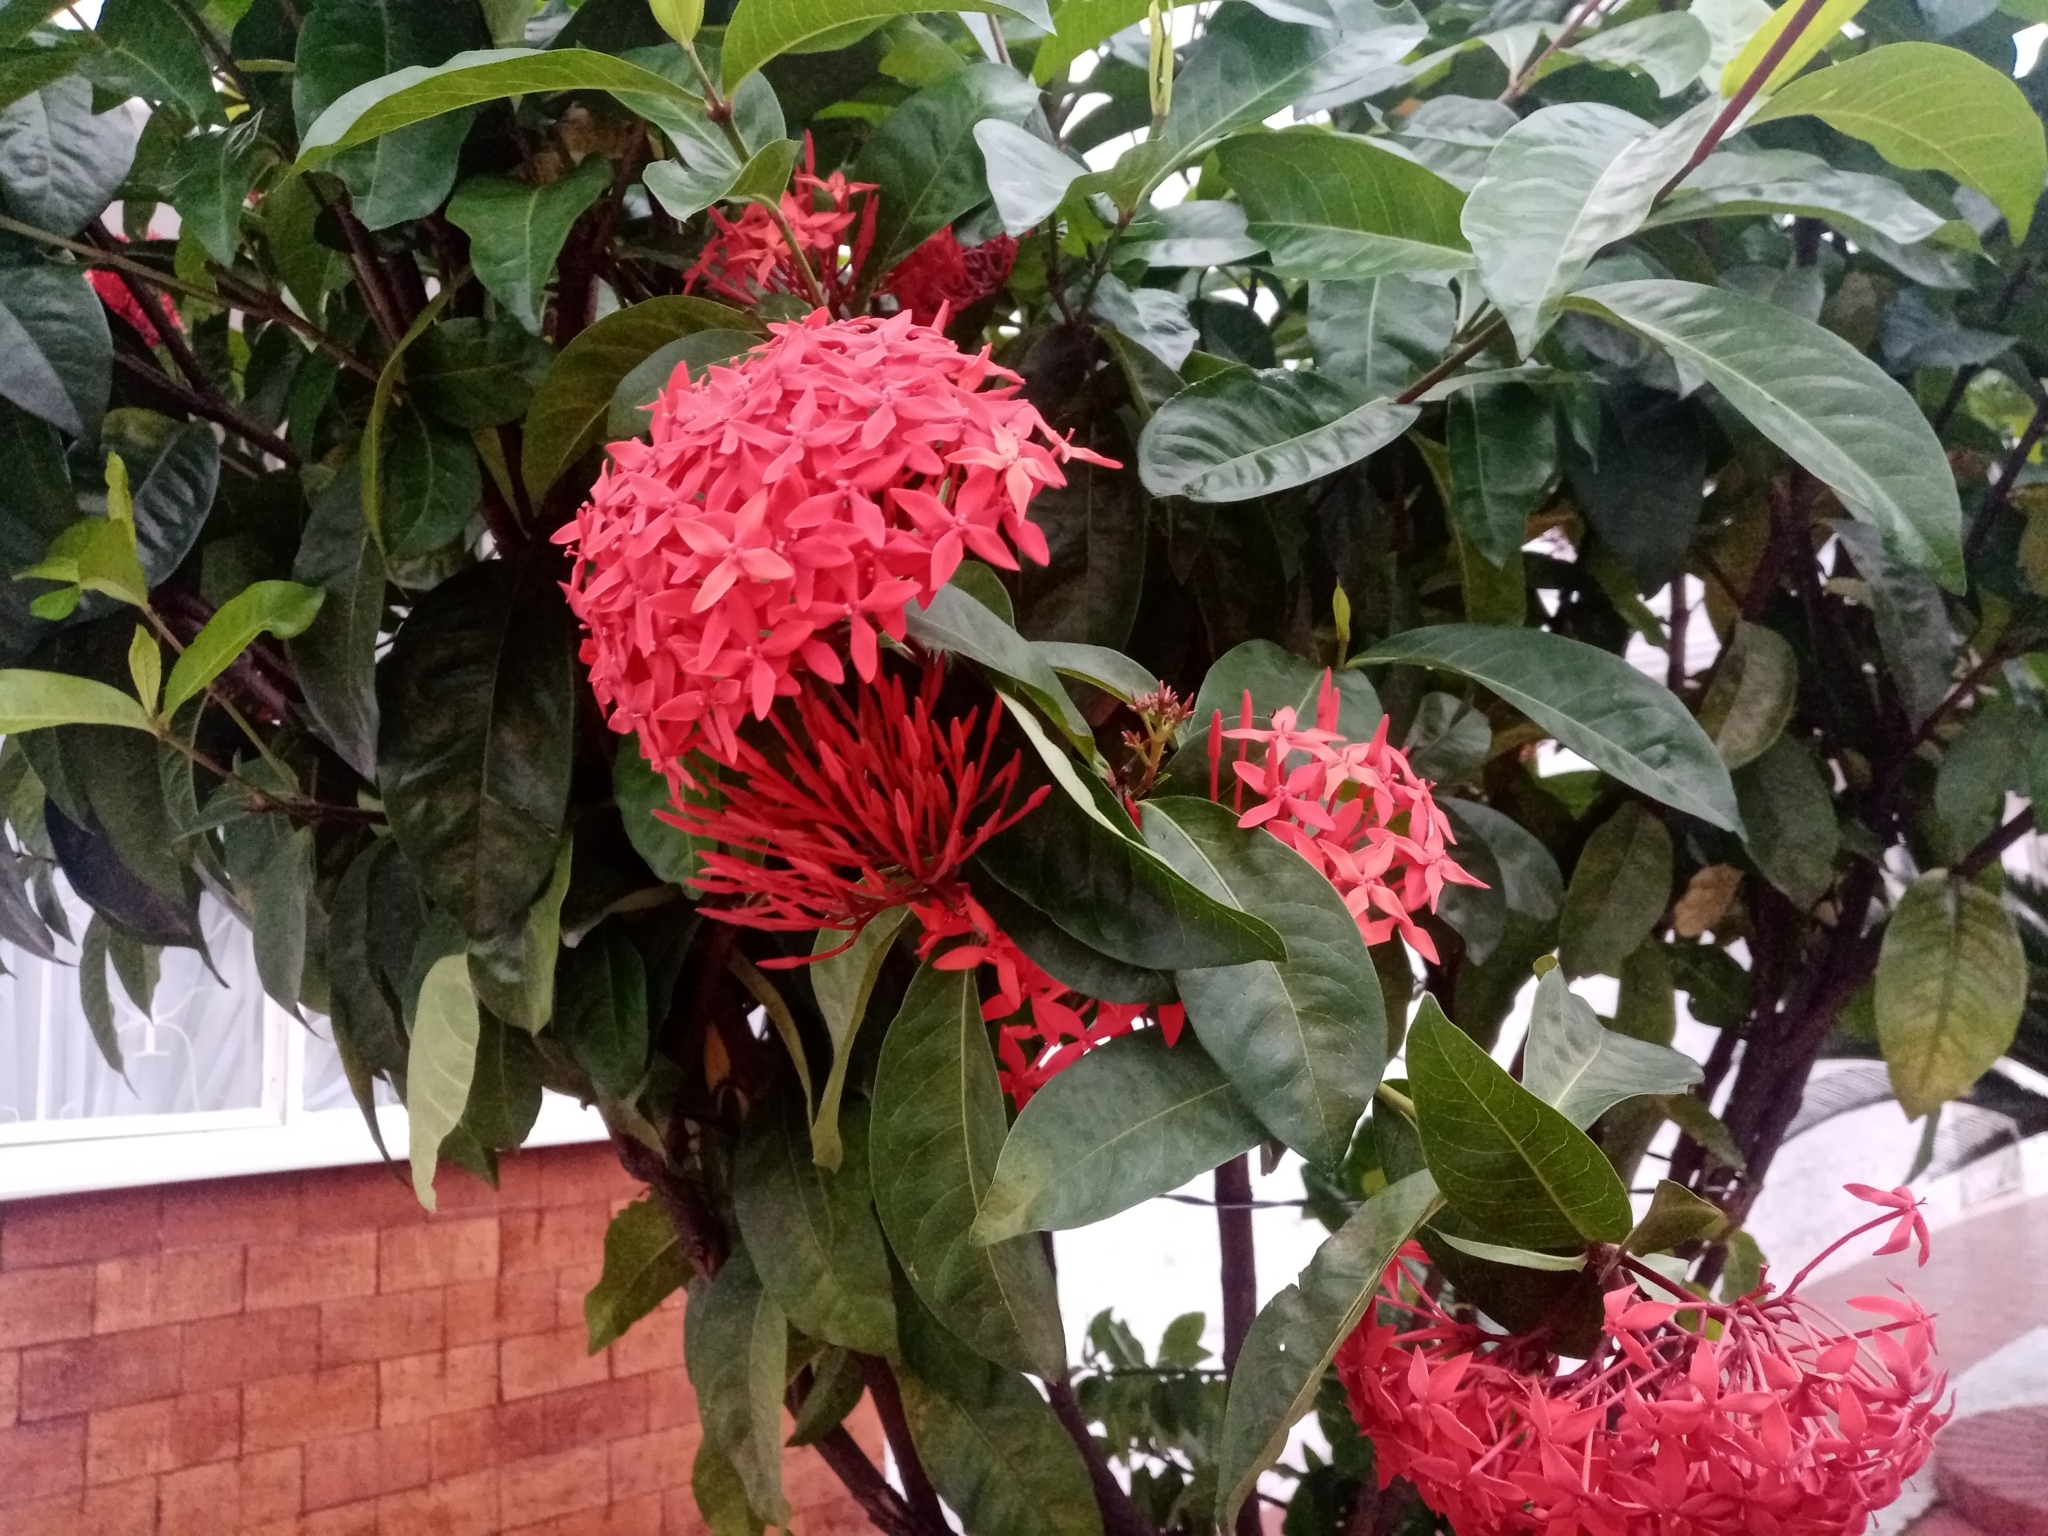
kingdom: Plantae
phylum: Tracheophyta
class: Magnoliopsida
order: Gentianales
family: Rubiaceae
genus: Ixora
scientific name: Ixora coccinea
